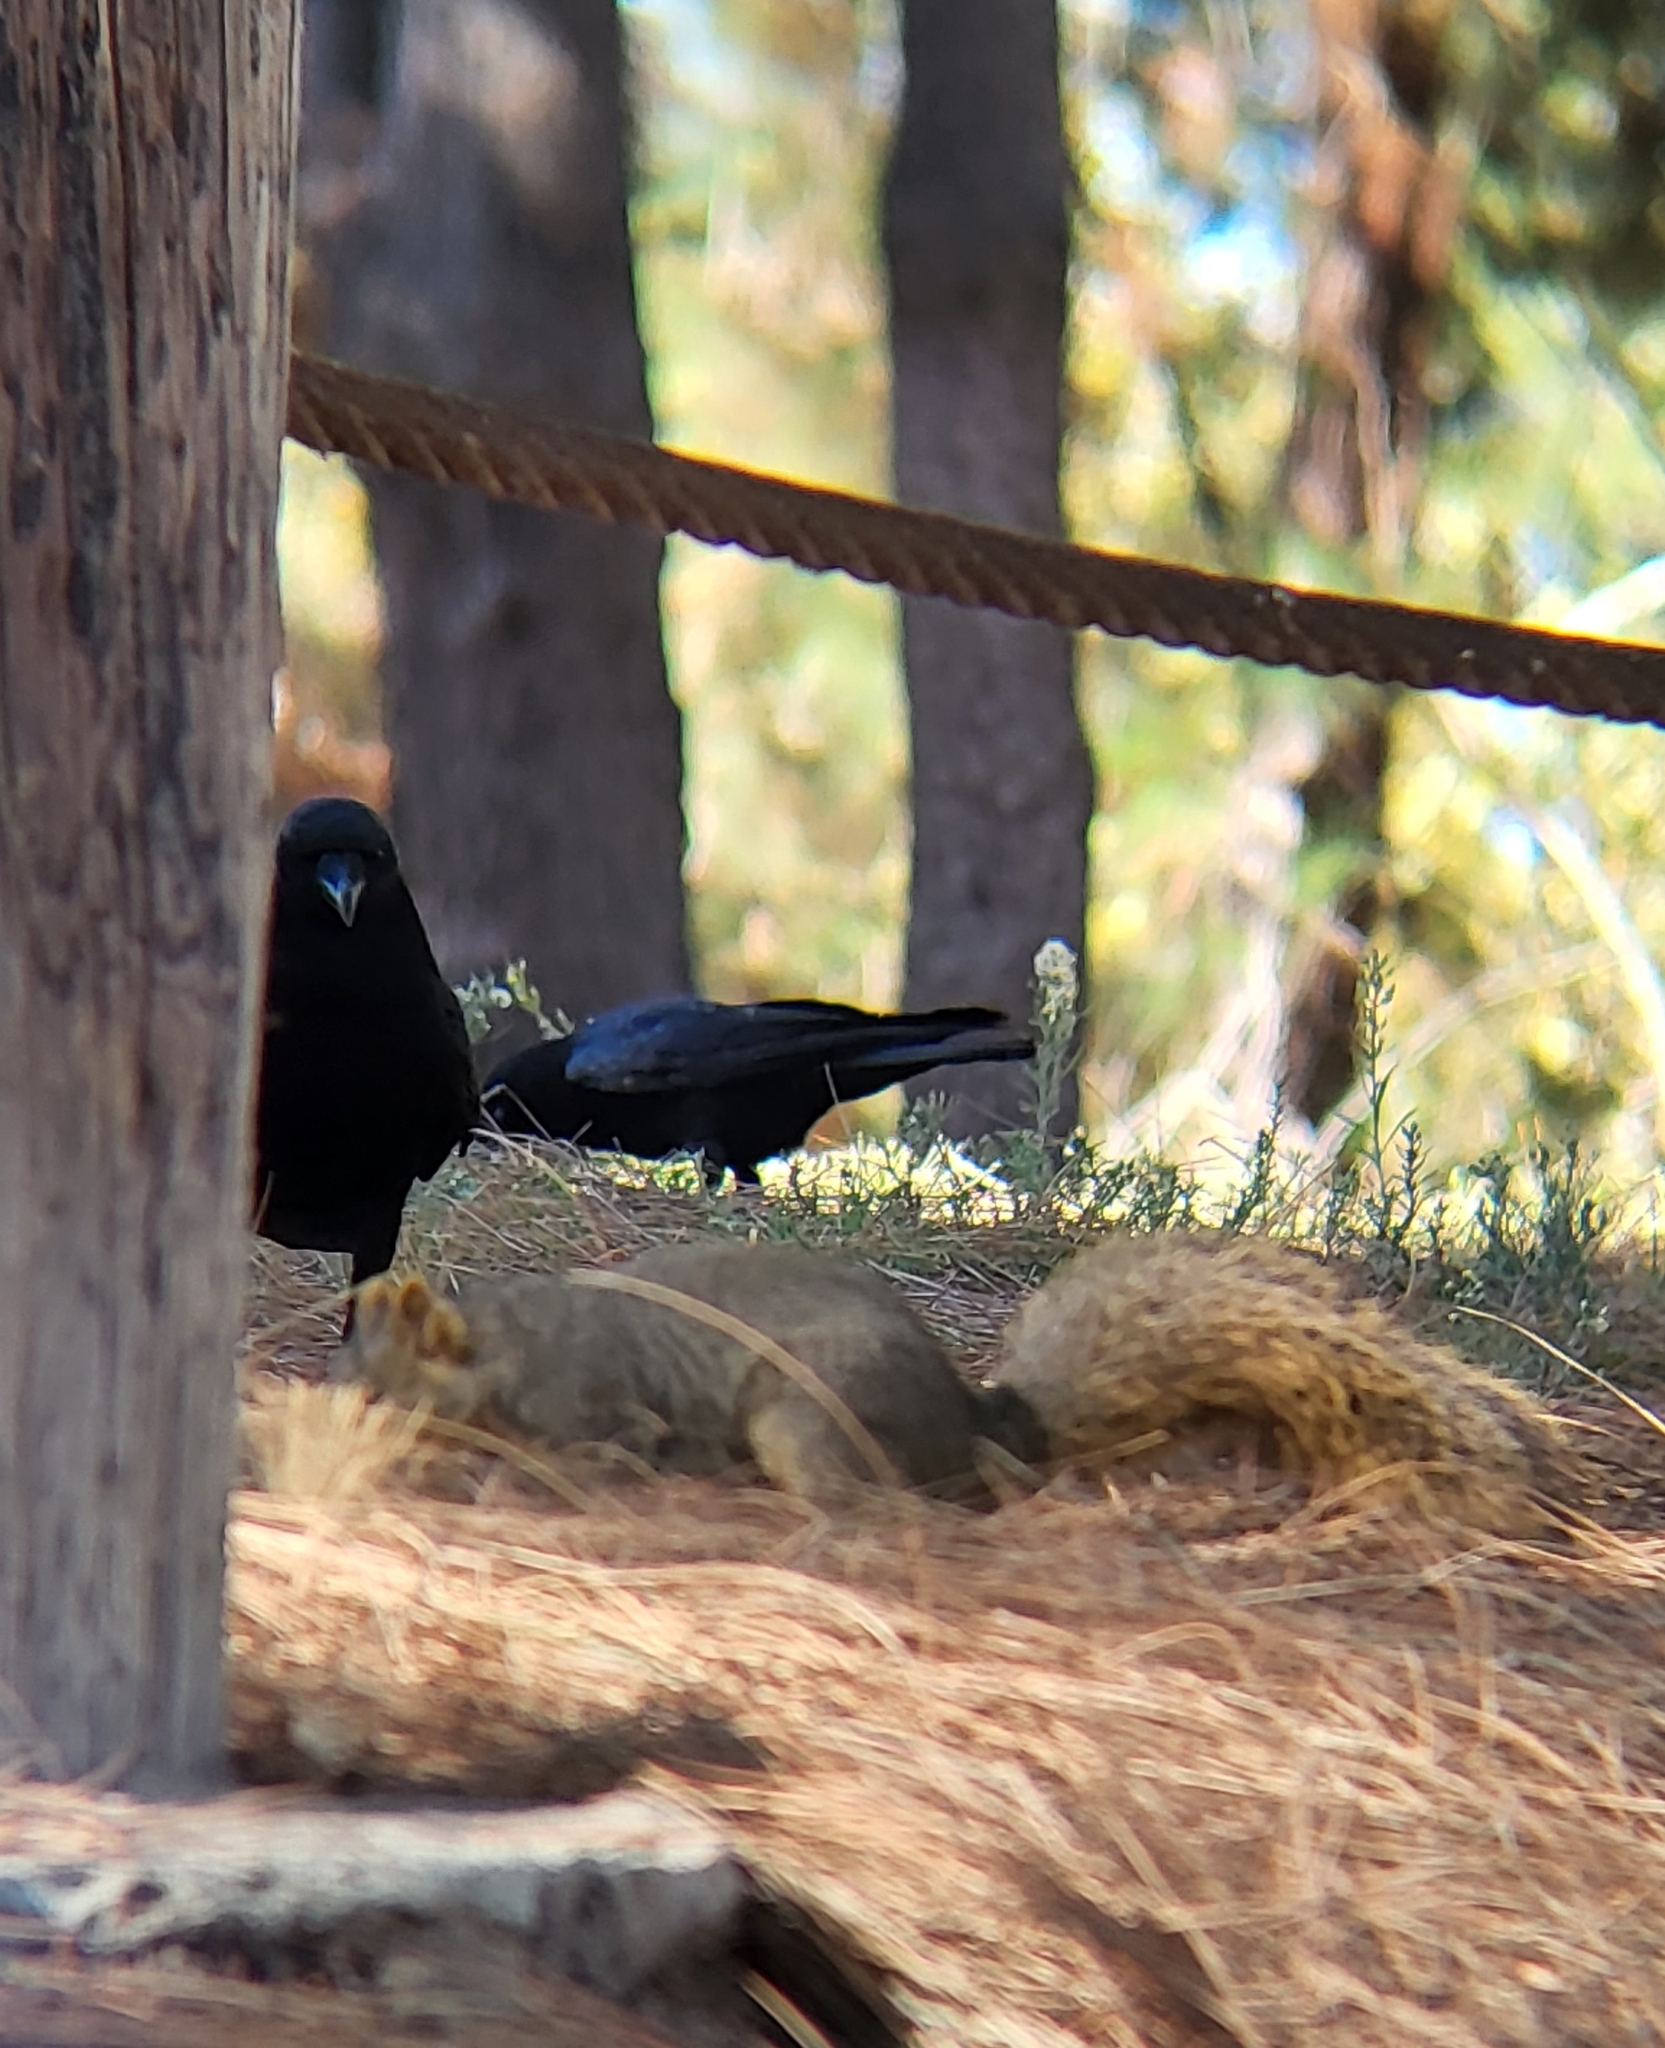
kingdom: Animalia
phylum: Chordata
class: Aves
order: Passeriformes
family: Corvidae
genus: Corvus
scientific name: Corvus brachyrhynchos
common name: American crow
